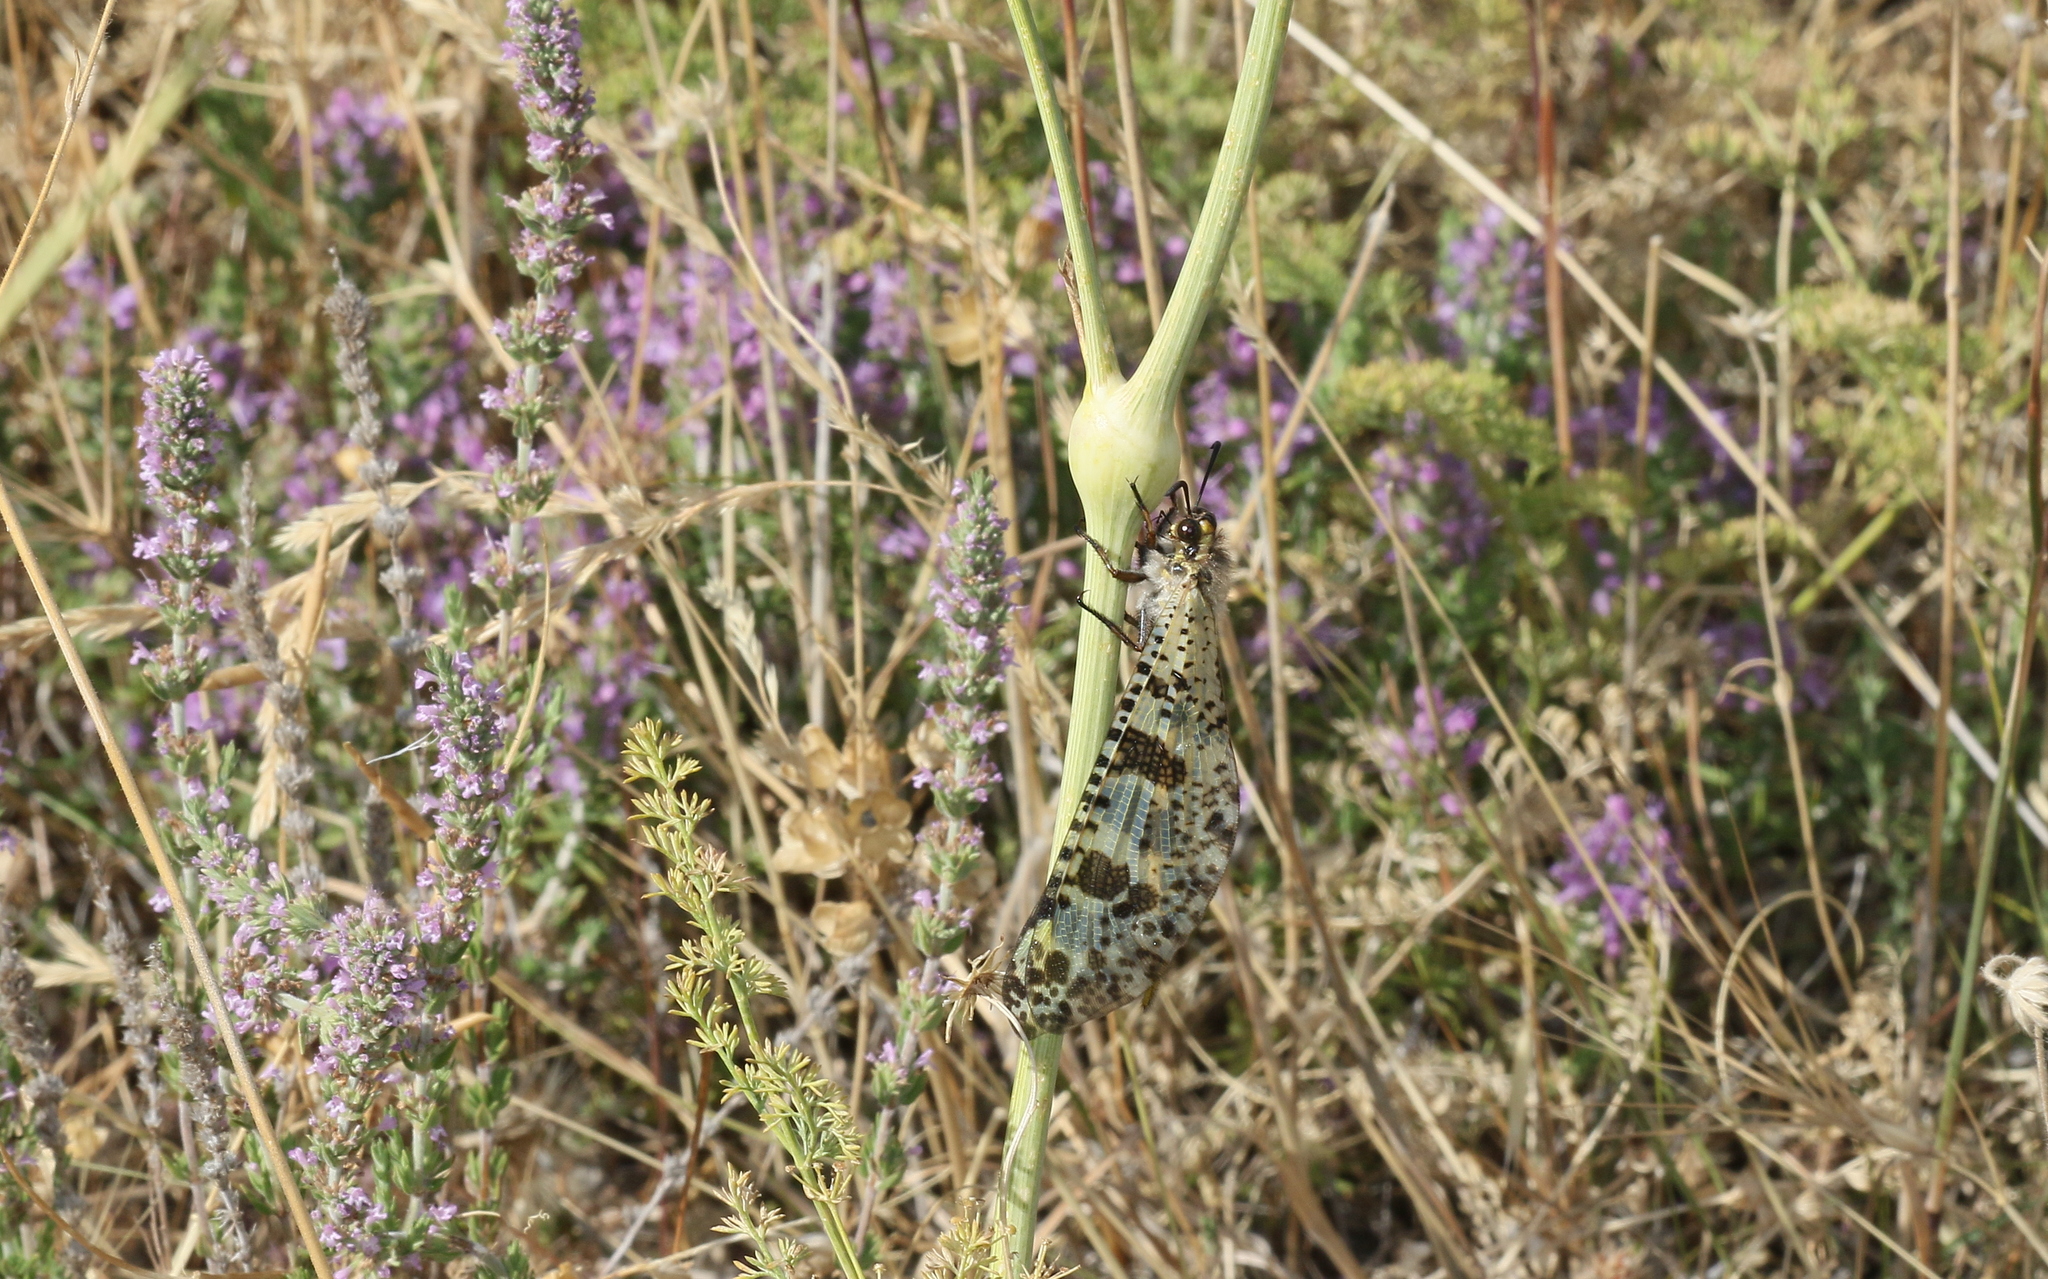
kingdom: Animalia
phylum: Arthropoda
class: Insecta
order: Neuroptera
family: Myrmeleontidae
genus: Palpares
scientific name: Palpares libelluloides
